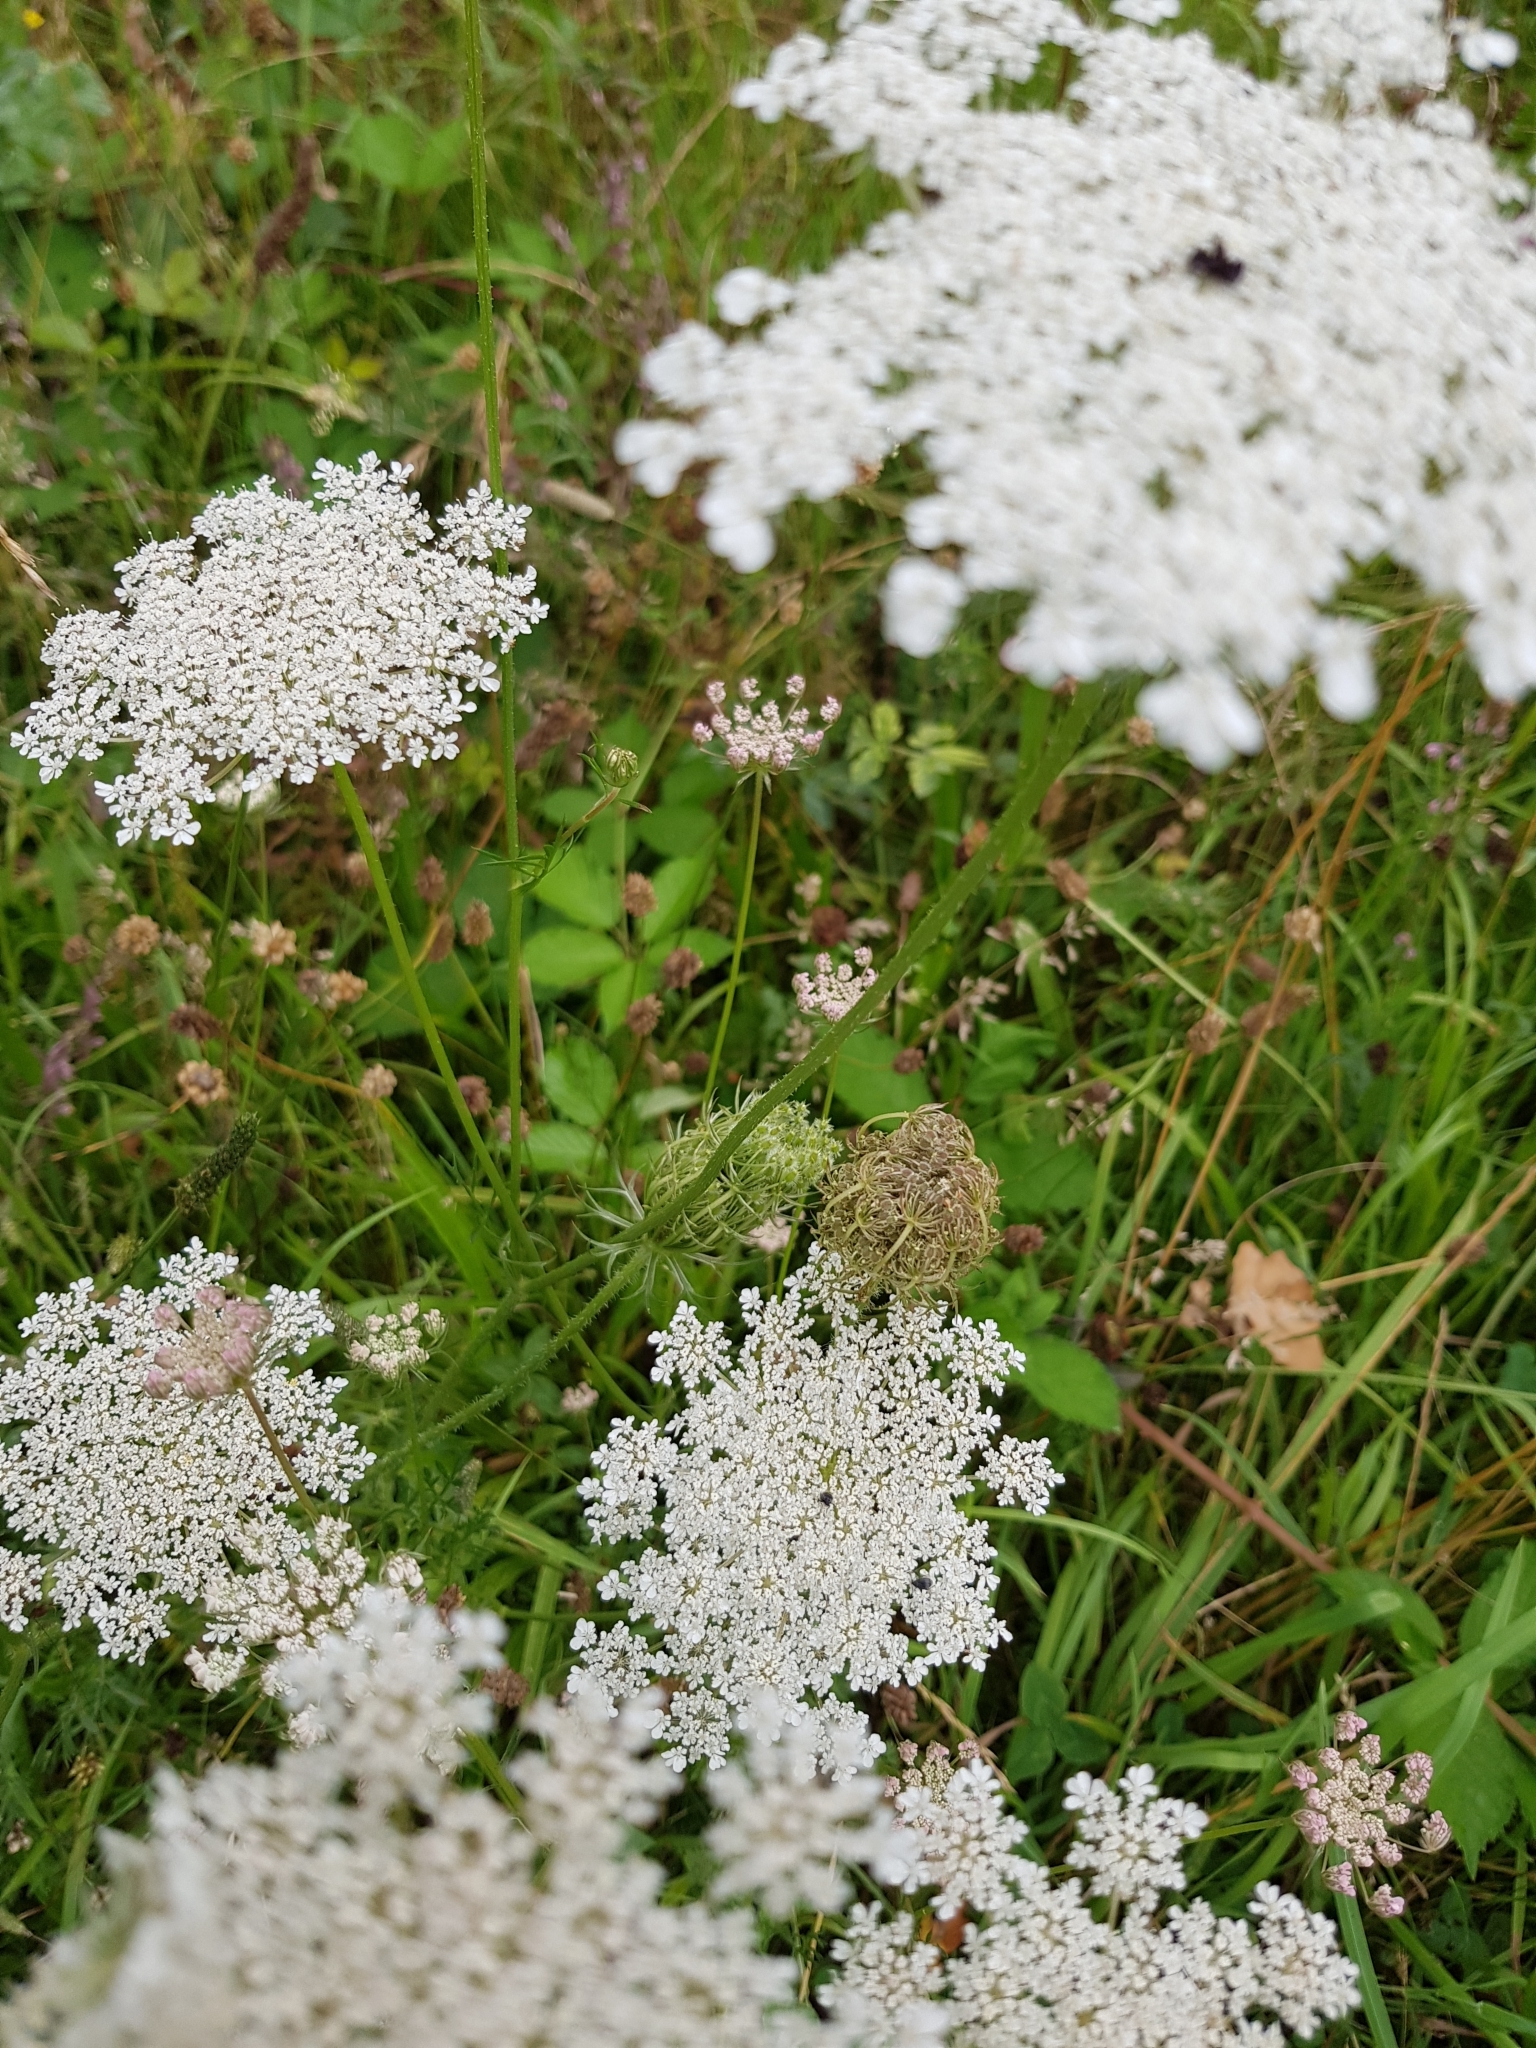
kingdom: Plantae
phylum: Tracheophyta
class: Magnoliopsida
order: Apiales
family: Apiaceae
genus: Daucus
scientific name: Daucus carota
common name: Wild carrot
